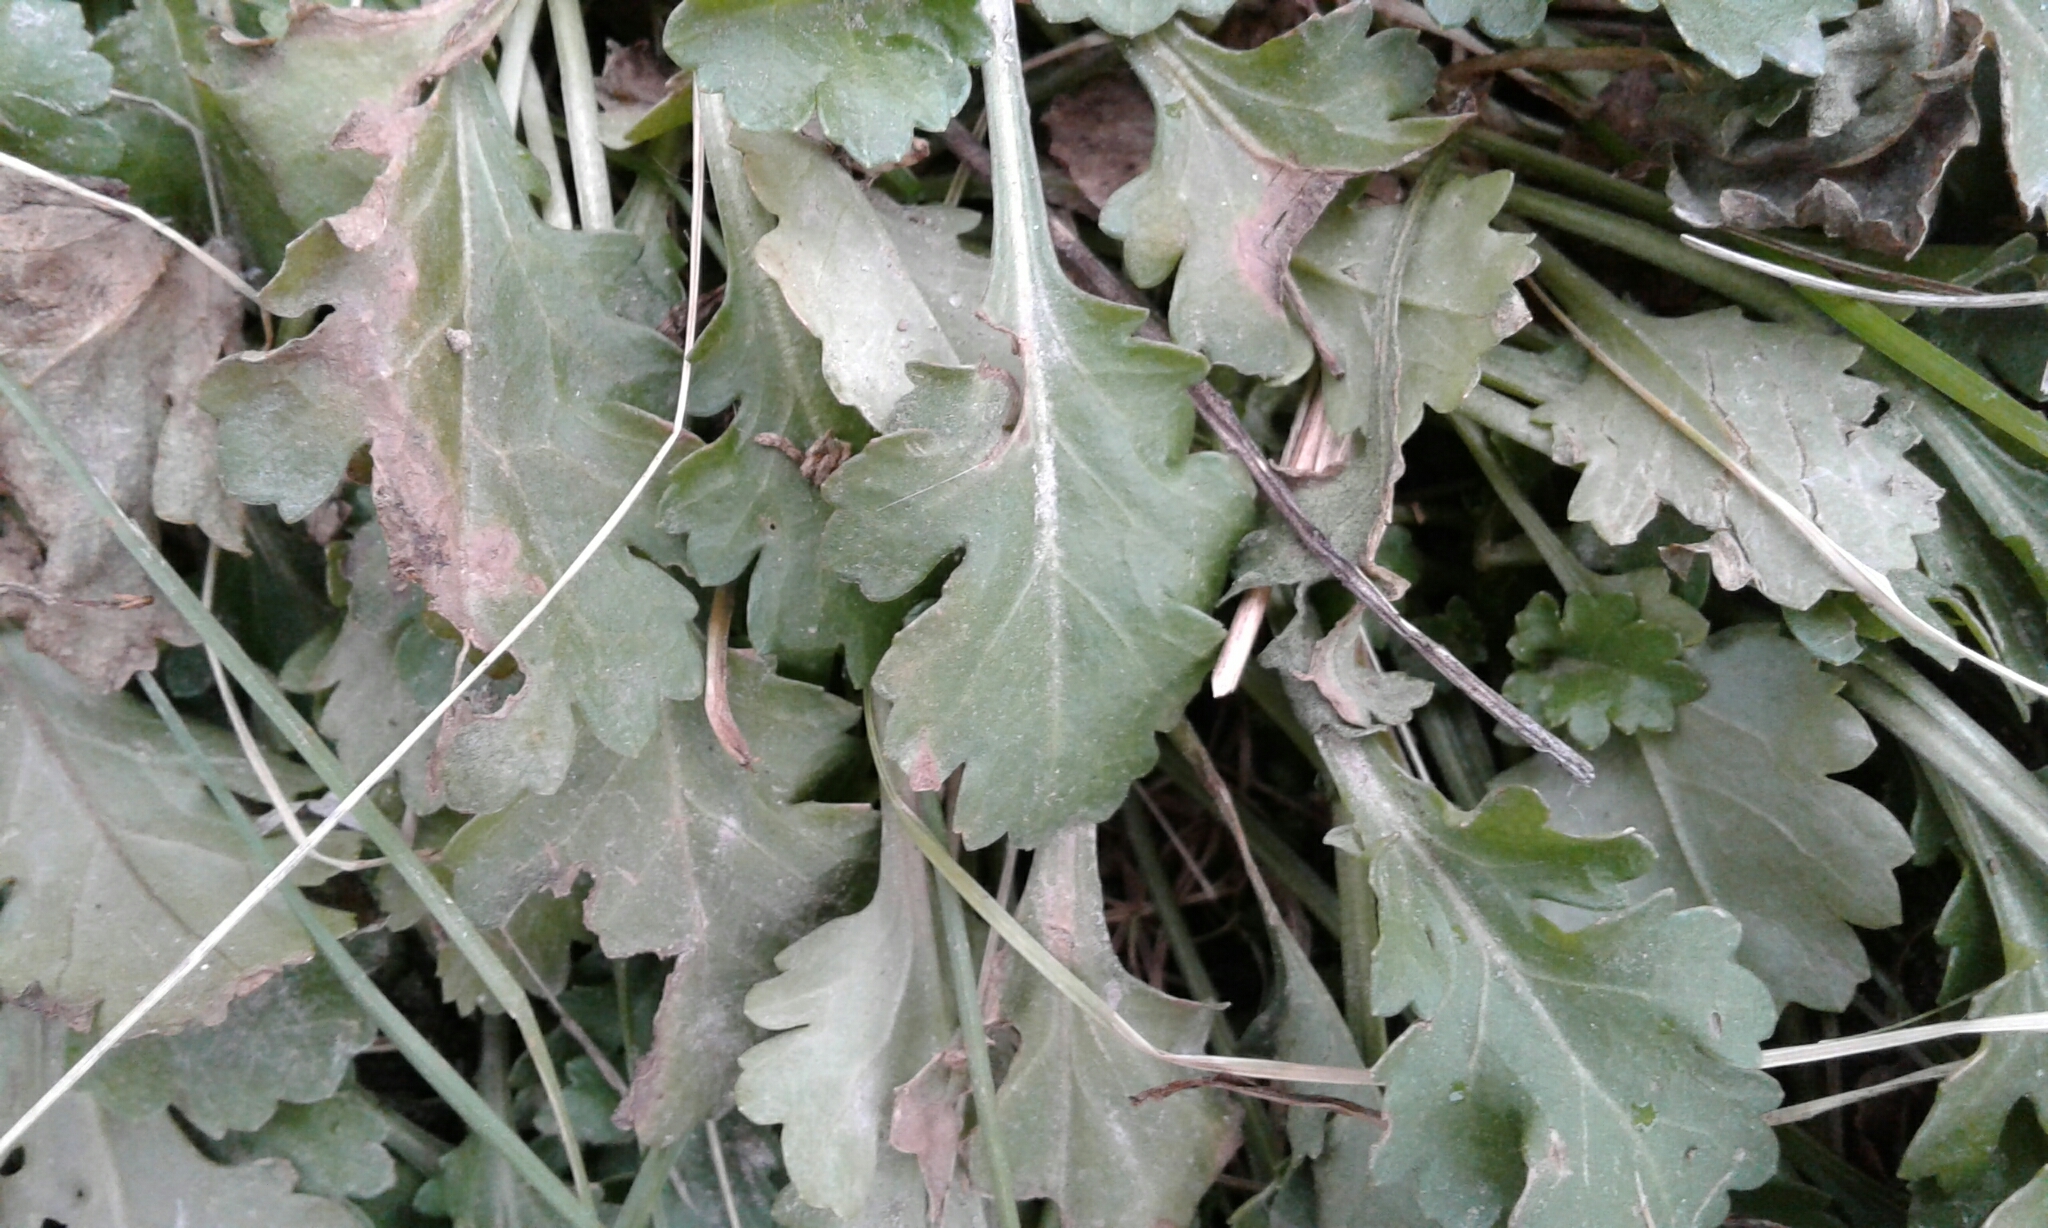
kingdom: Plantae
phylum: Tracheophyta
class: Magnoliopsida
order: Asterales
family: Asteraceae
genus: Leucanthemum
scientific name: Leucanthemum vulgare
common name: Oxeye daisy
